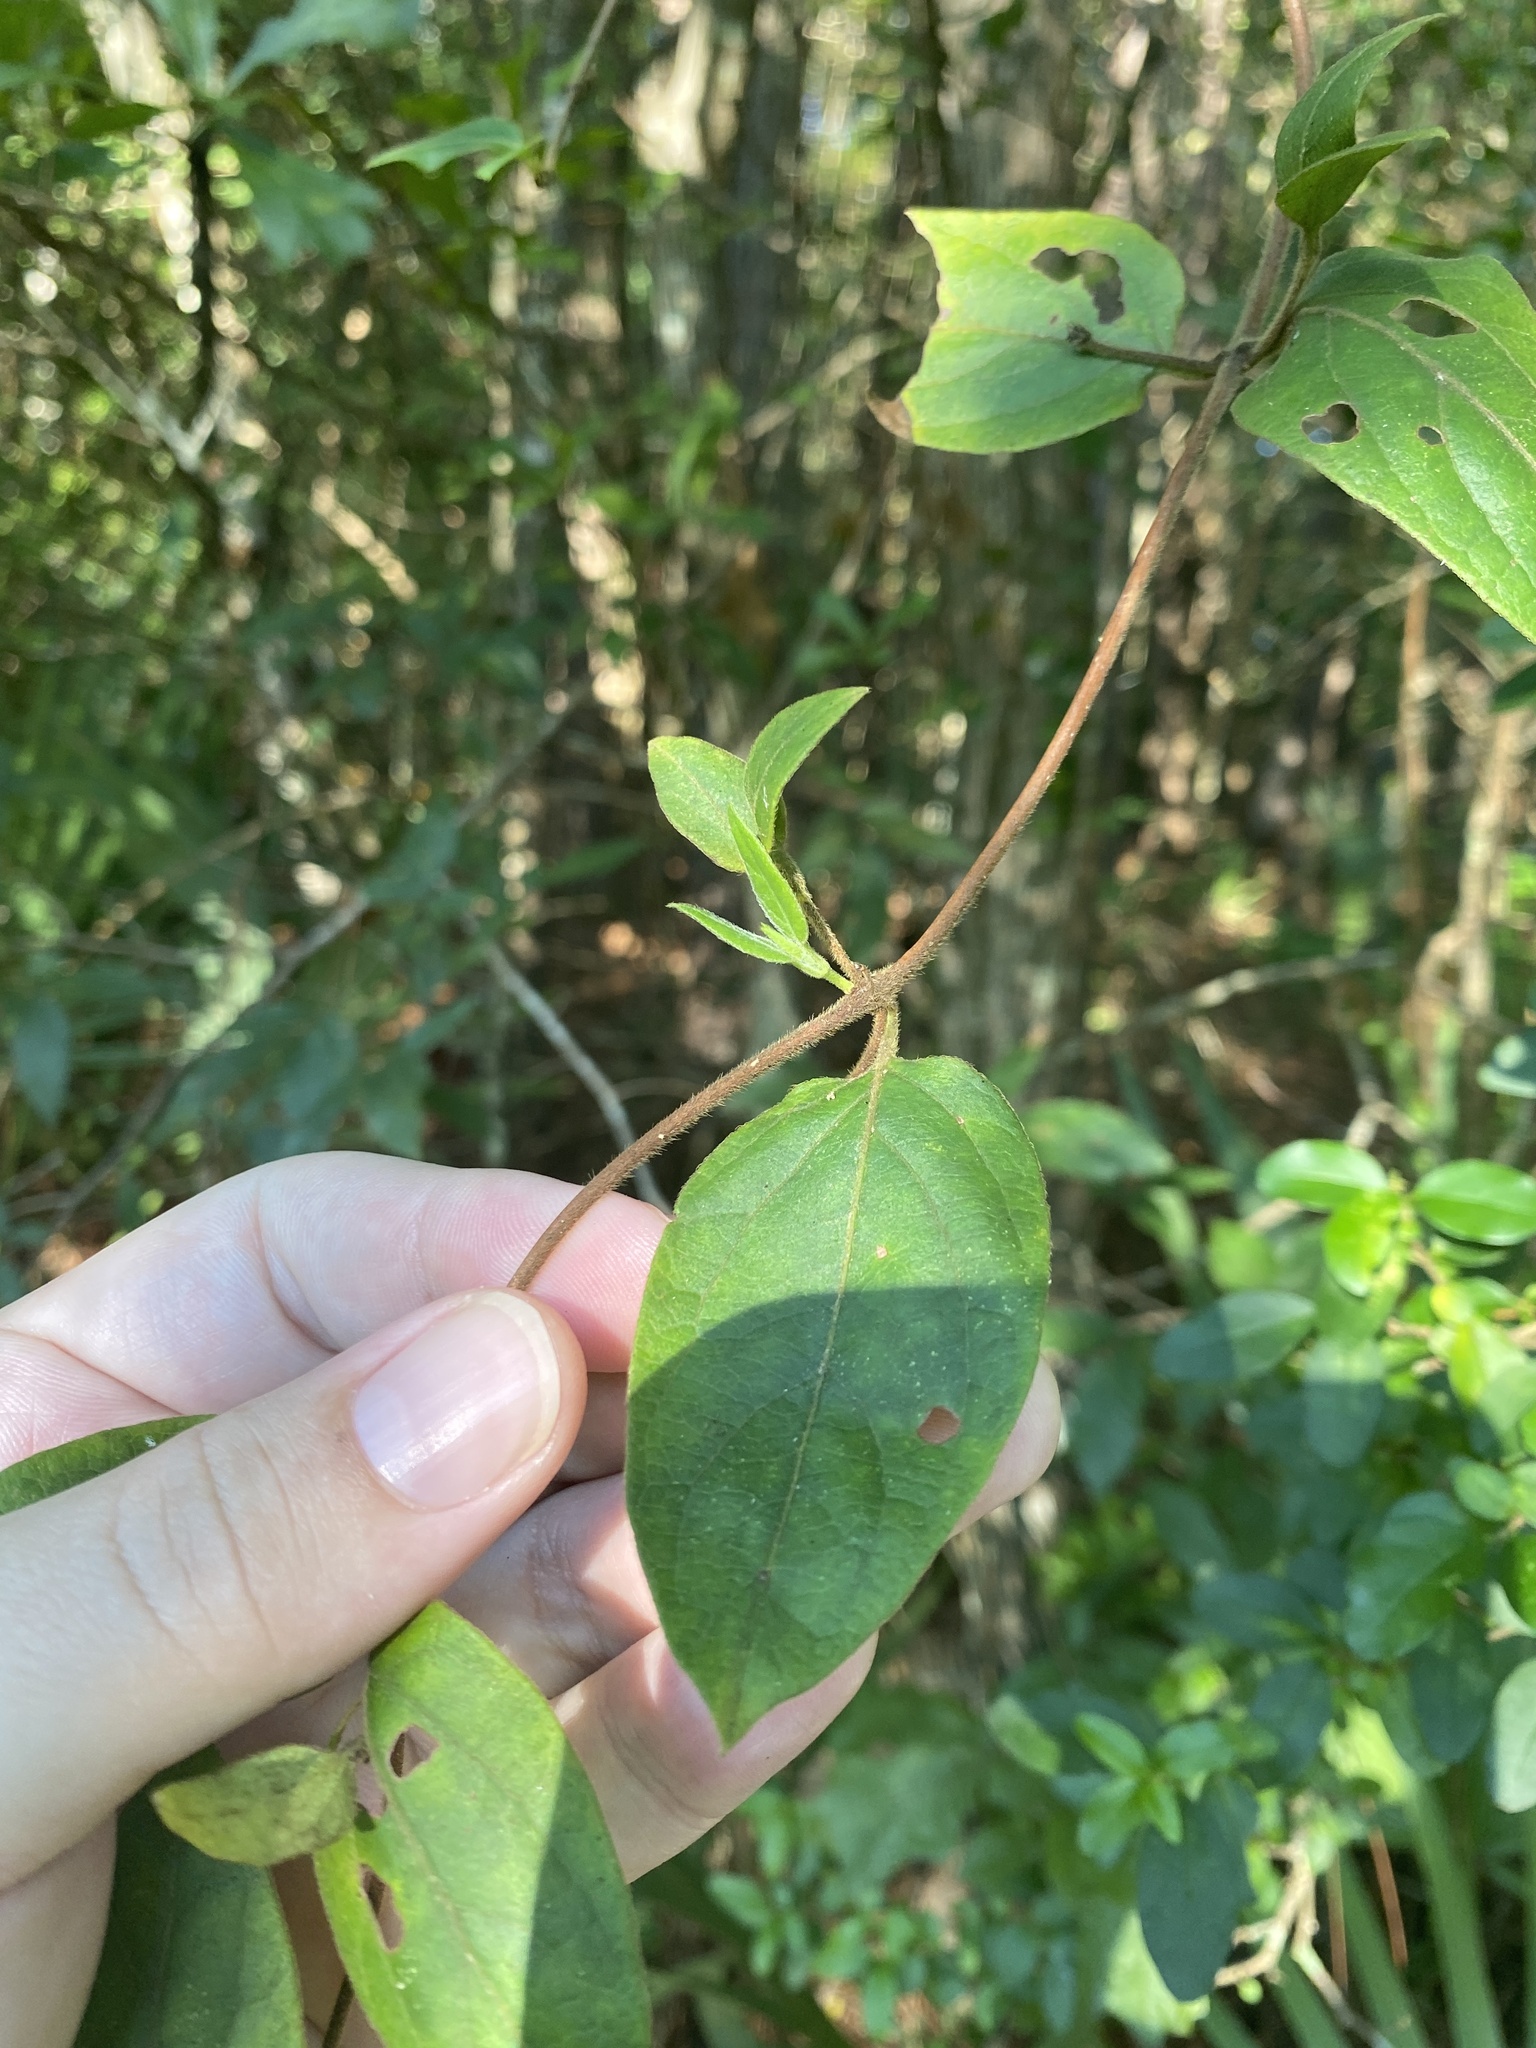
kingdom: Plantae
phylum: Tracheophyta
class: Magnoliopsida
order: Dipsacales
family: Caprifoliaceae
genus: Lonicera
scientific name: Lonicera japonica
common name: Japanese honeysuckle
